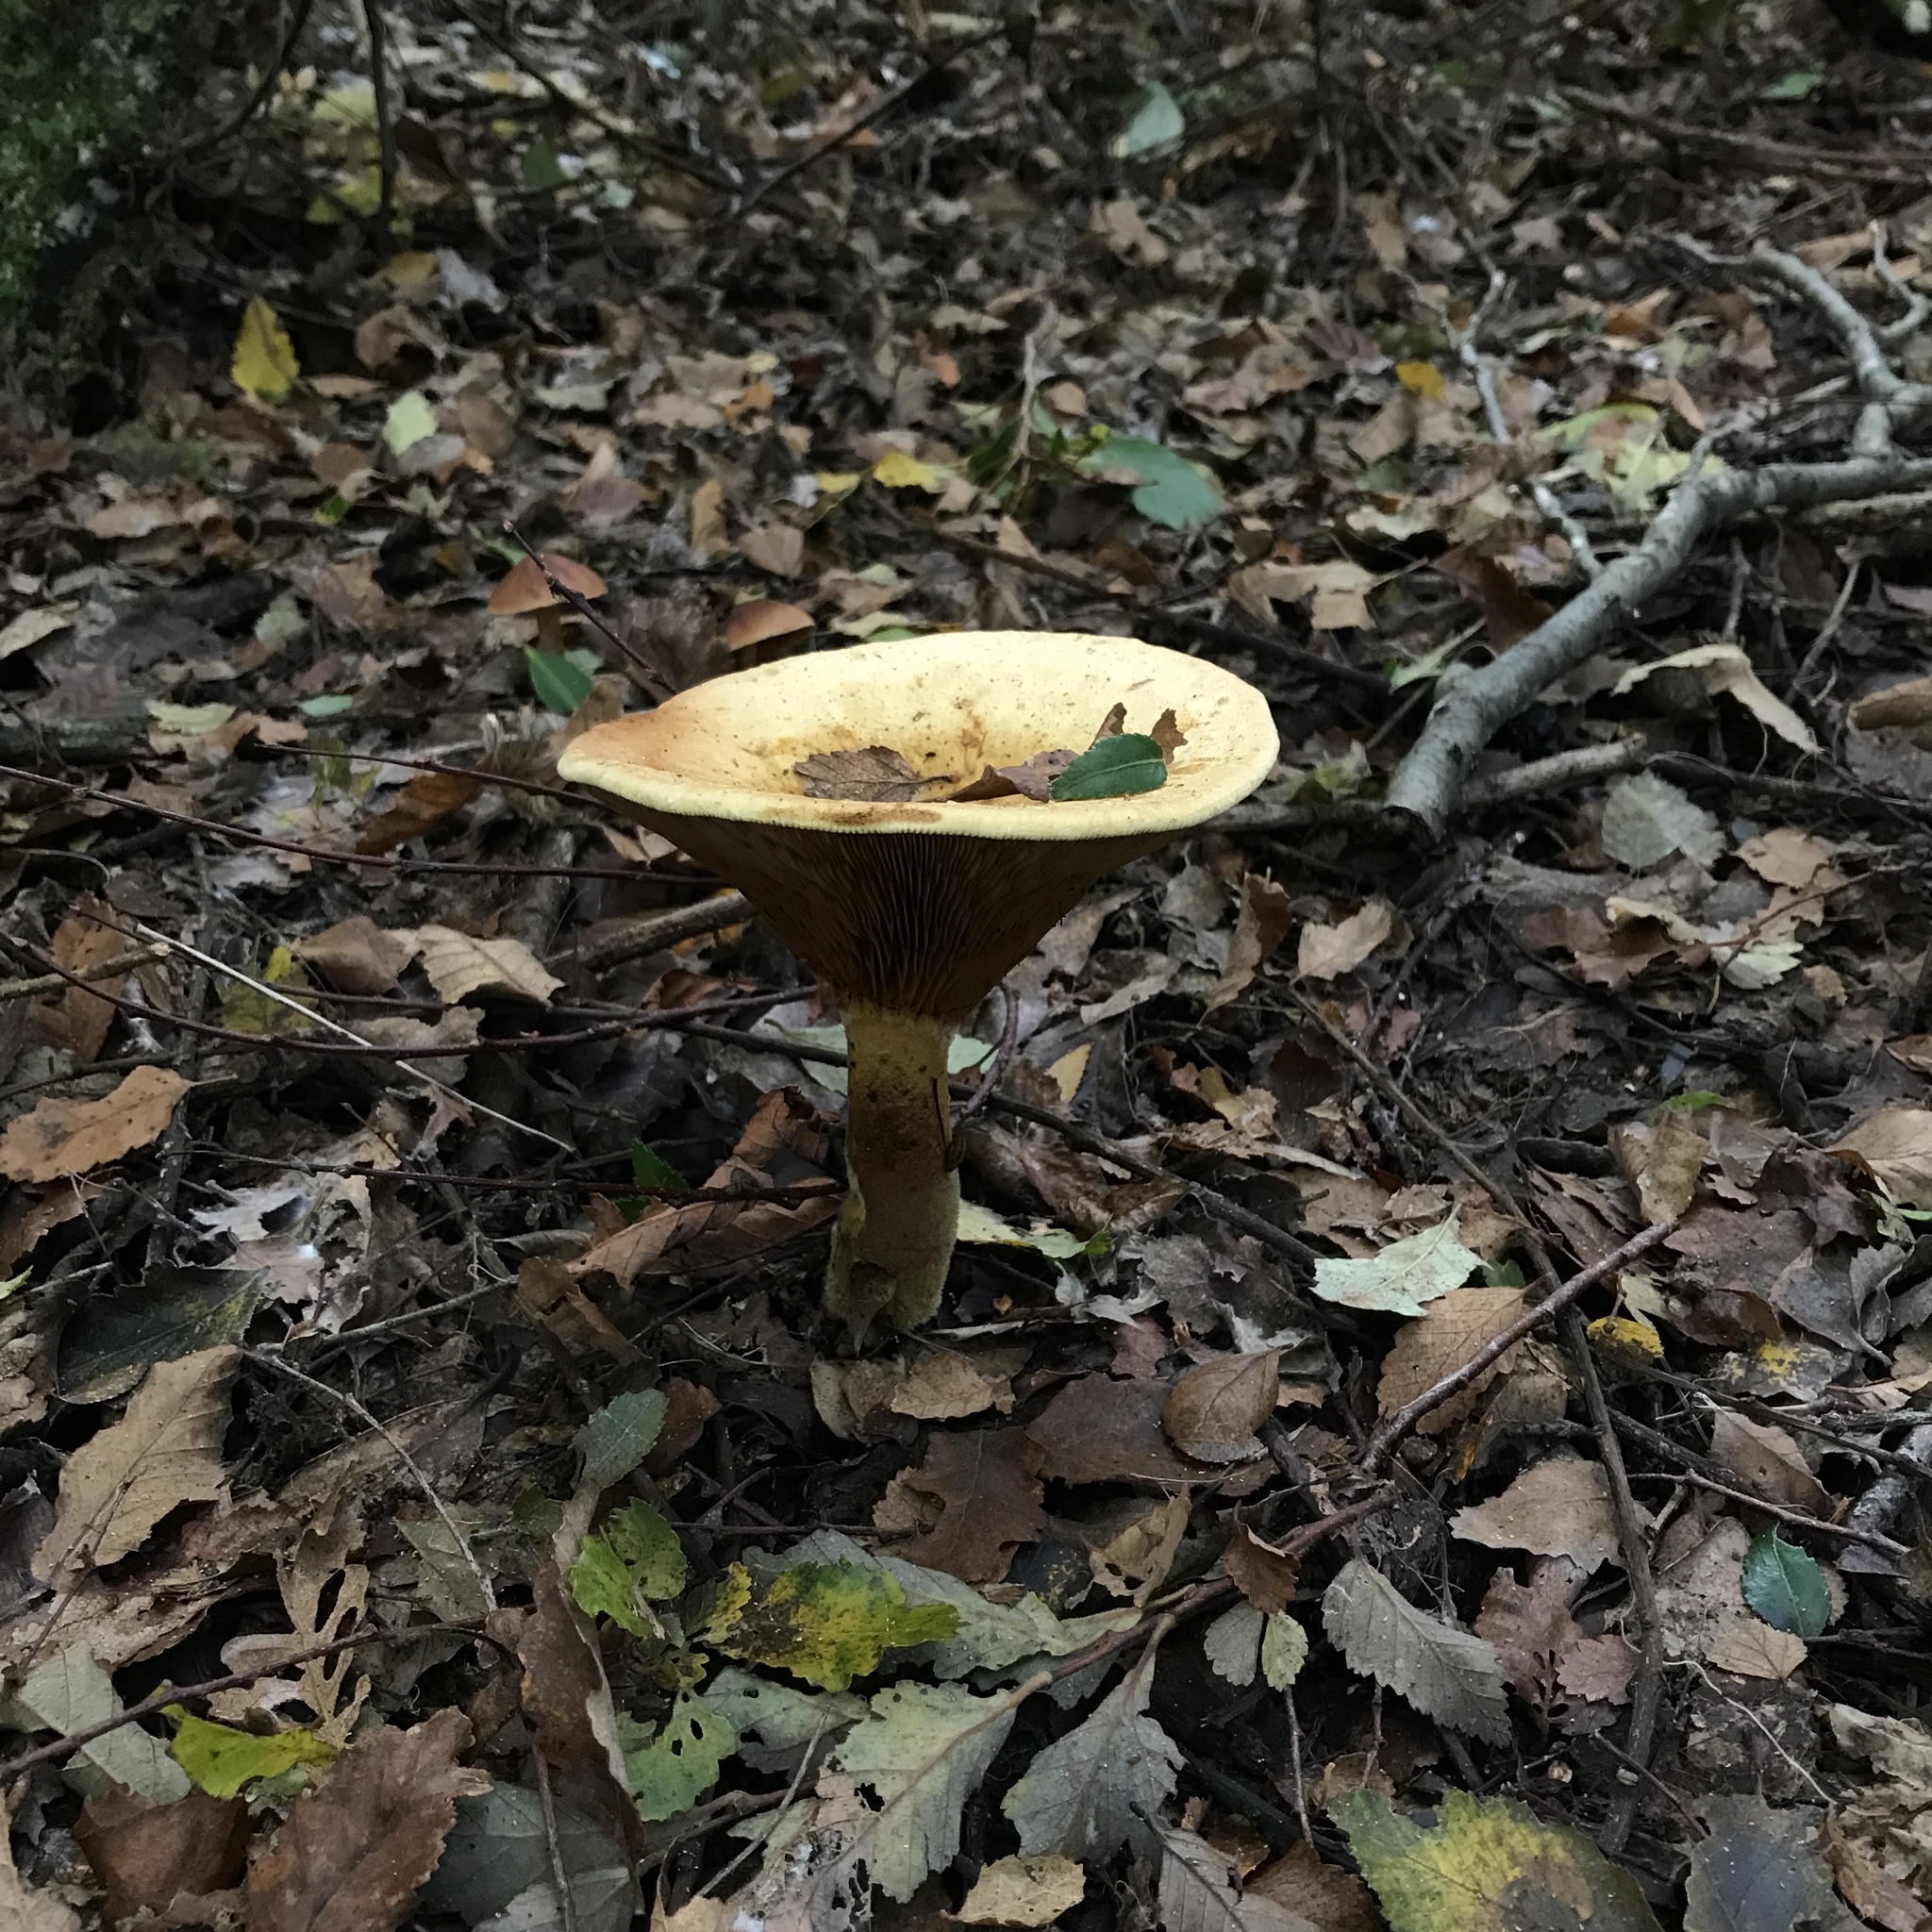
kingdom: Fungi
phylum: Basidiomycota
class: Agaricomycetes
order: Boletales
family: Serpulaceae
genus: Austropaxillus
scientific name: Austropaxillus statuum
